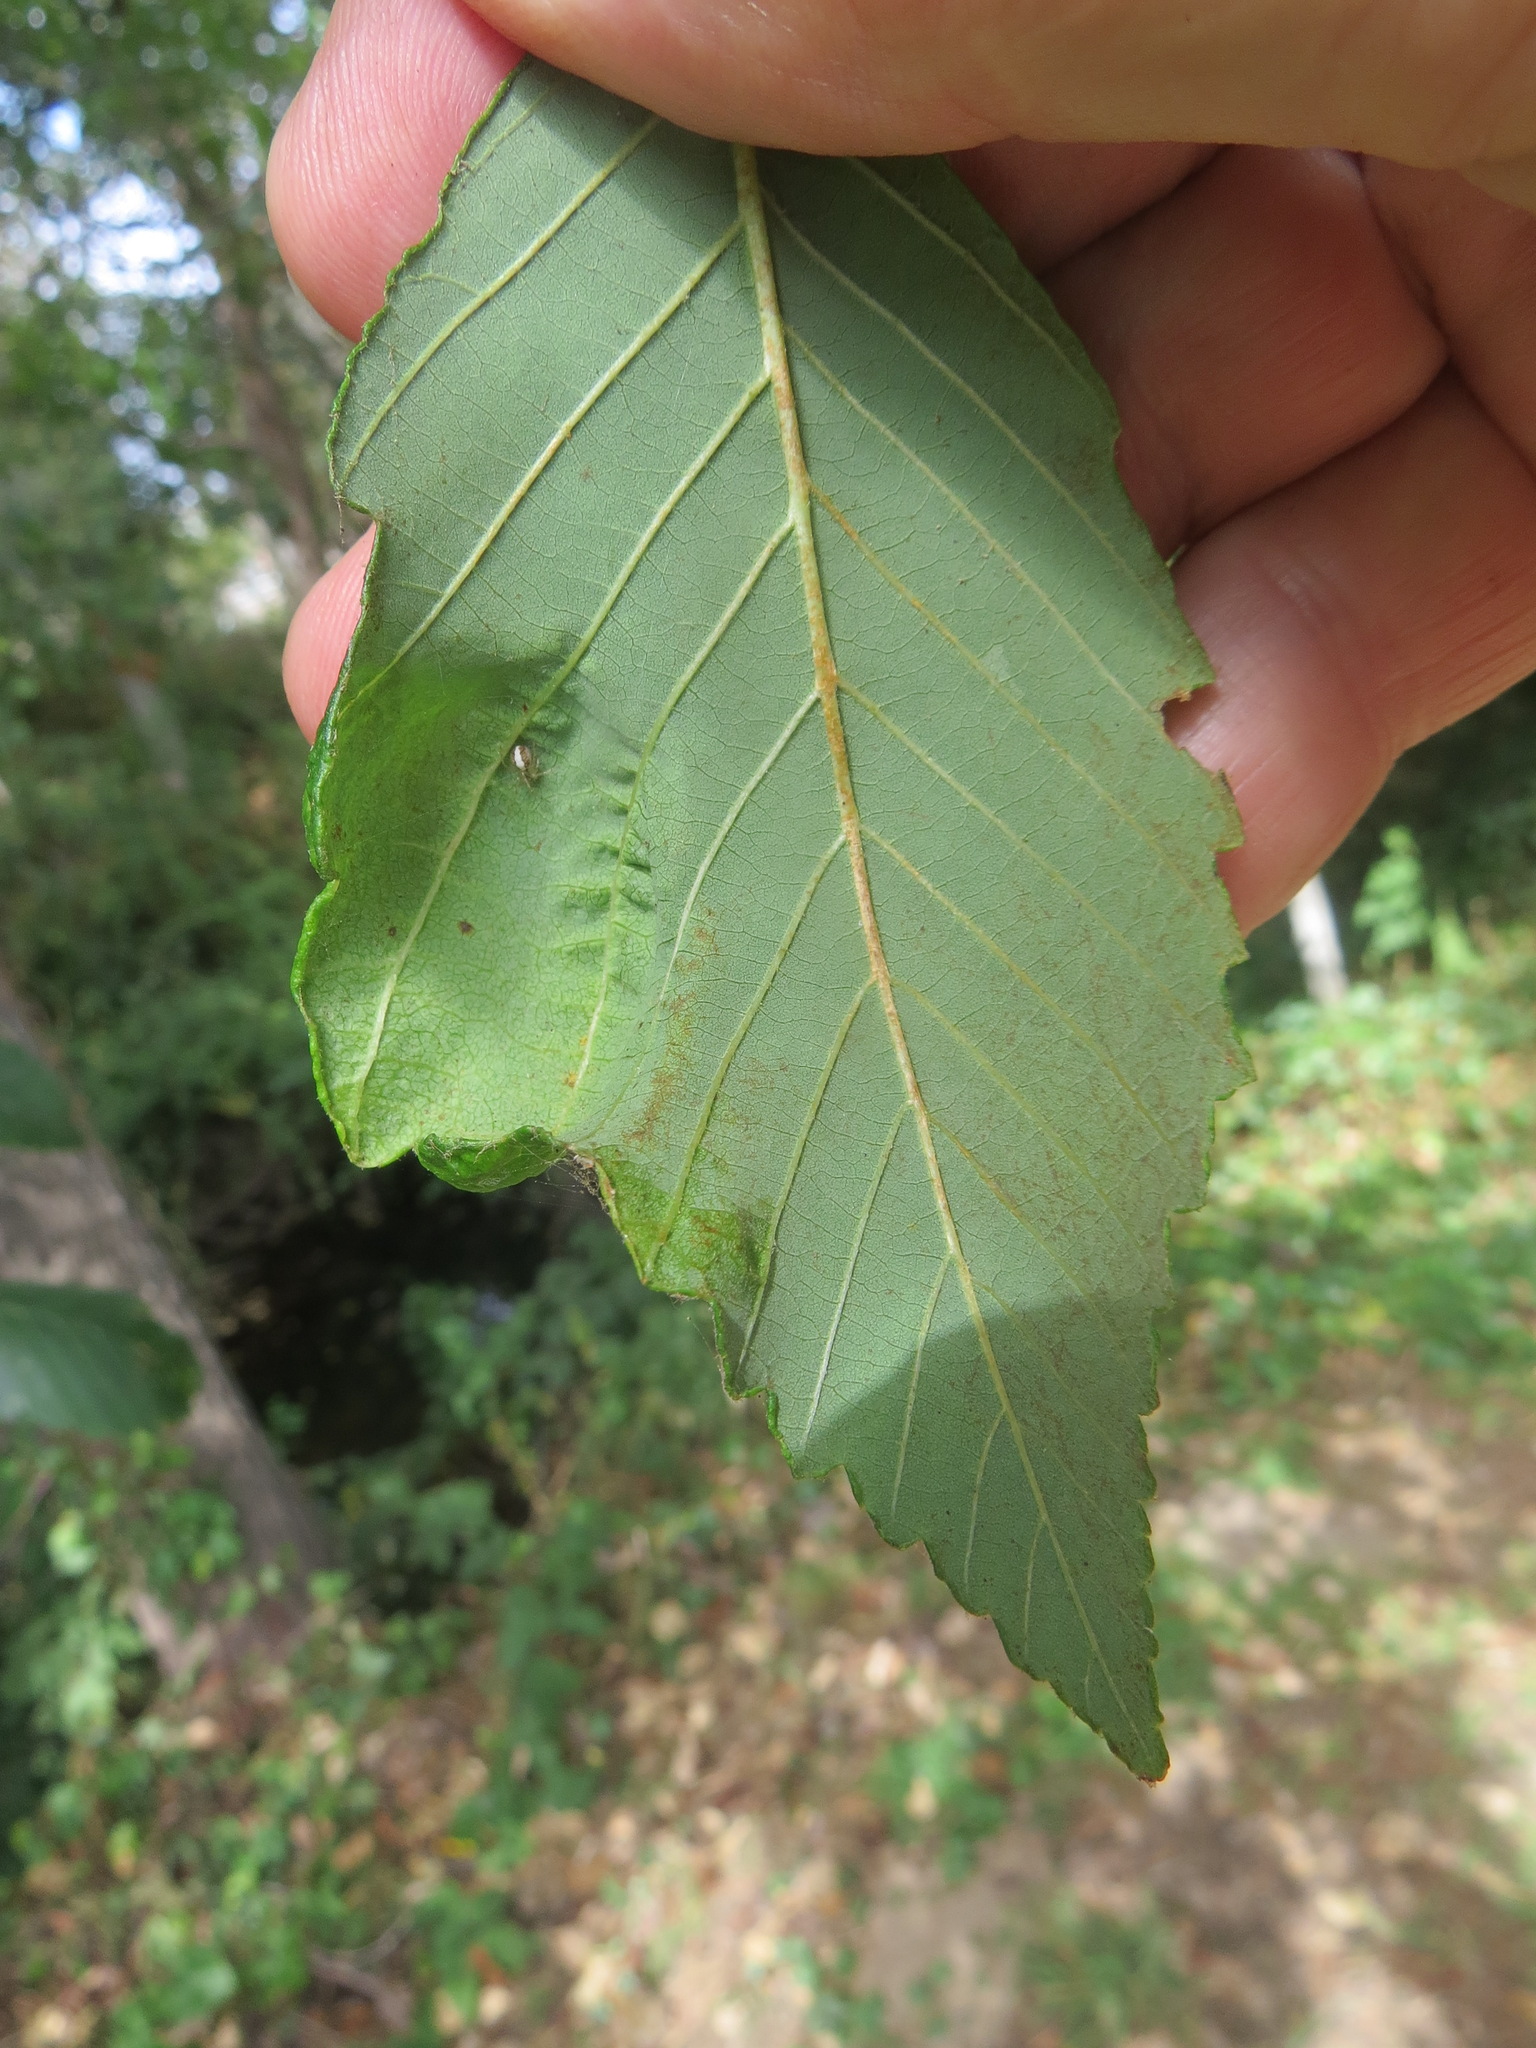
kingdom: Fungi
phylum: Ascomycota
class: Taphrinomycetes
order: Taphrinales
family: Taphrinaceae
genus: Taphrina
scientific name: Taphrina japonica
